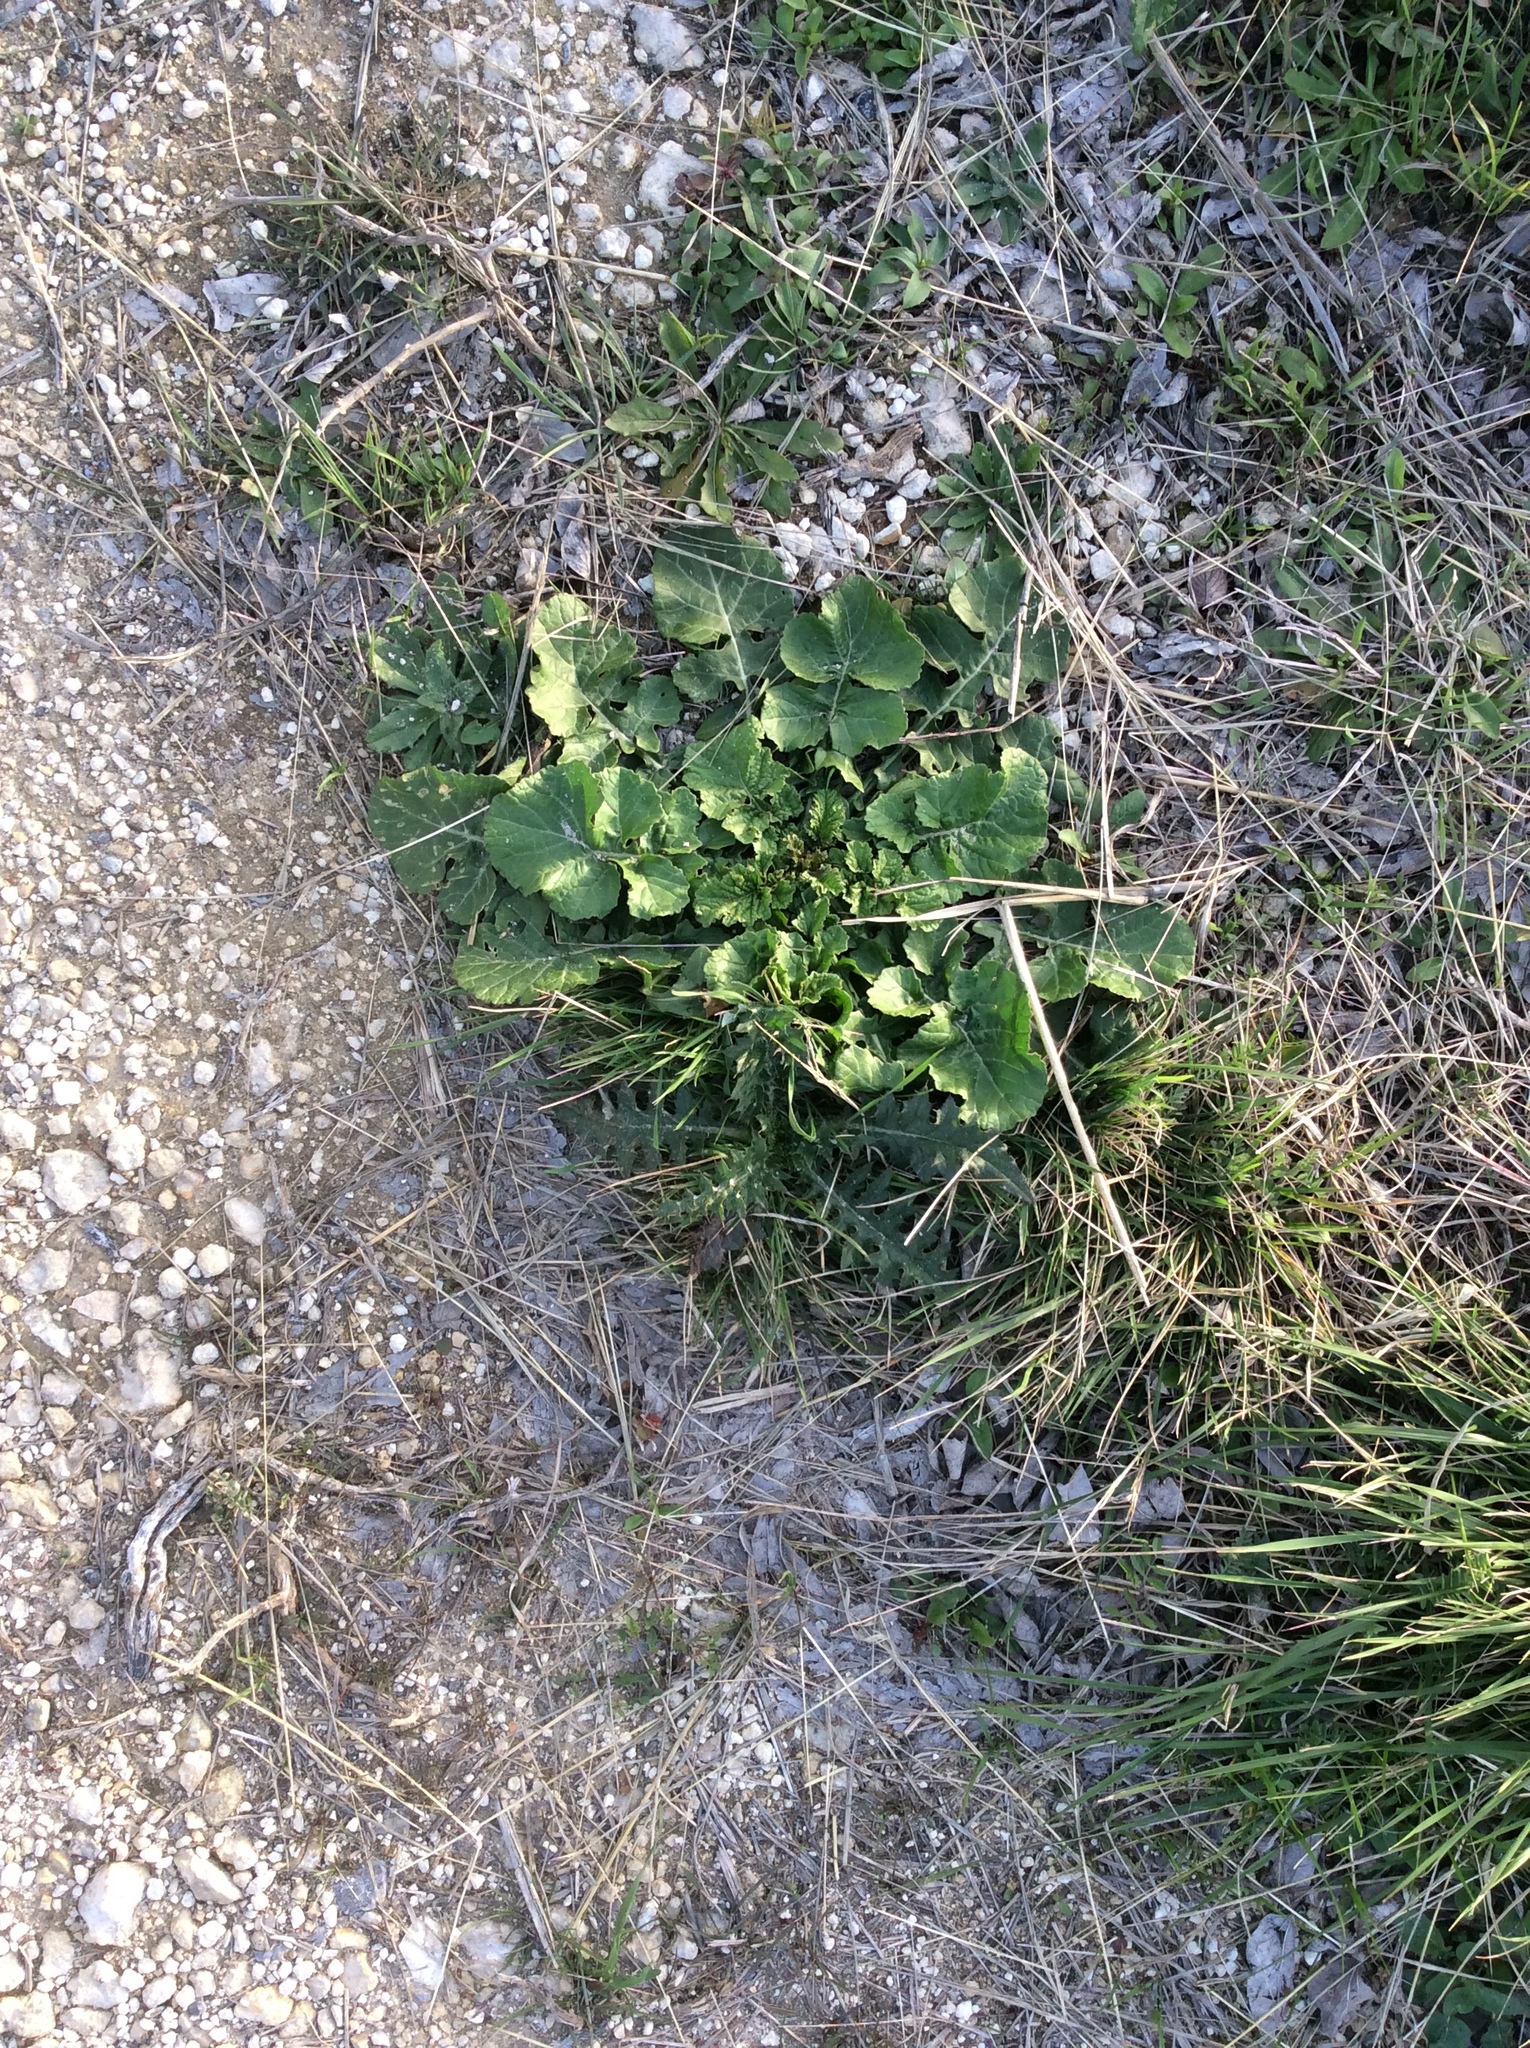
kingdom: Plantae
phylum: Tracheophyta
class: Magnoliopsida
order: Brassicales
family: Brassicaceae
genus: Rapistrum
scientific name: Rapistrum rugosum
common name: Annual bastardcabbage
